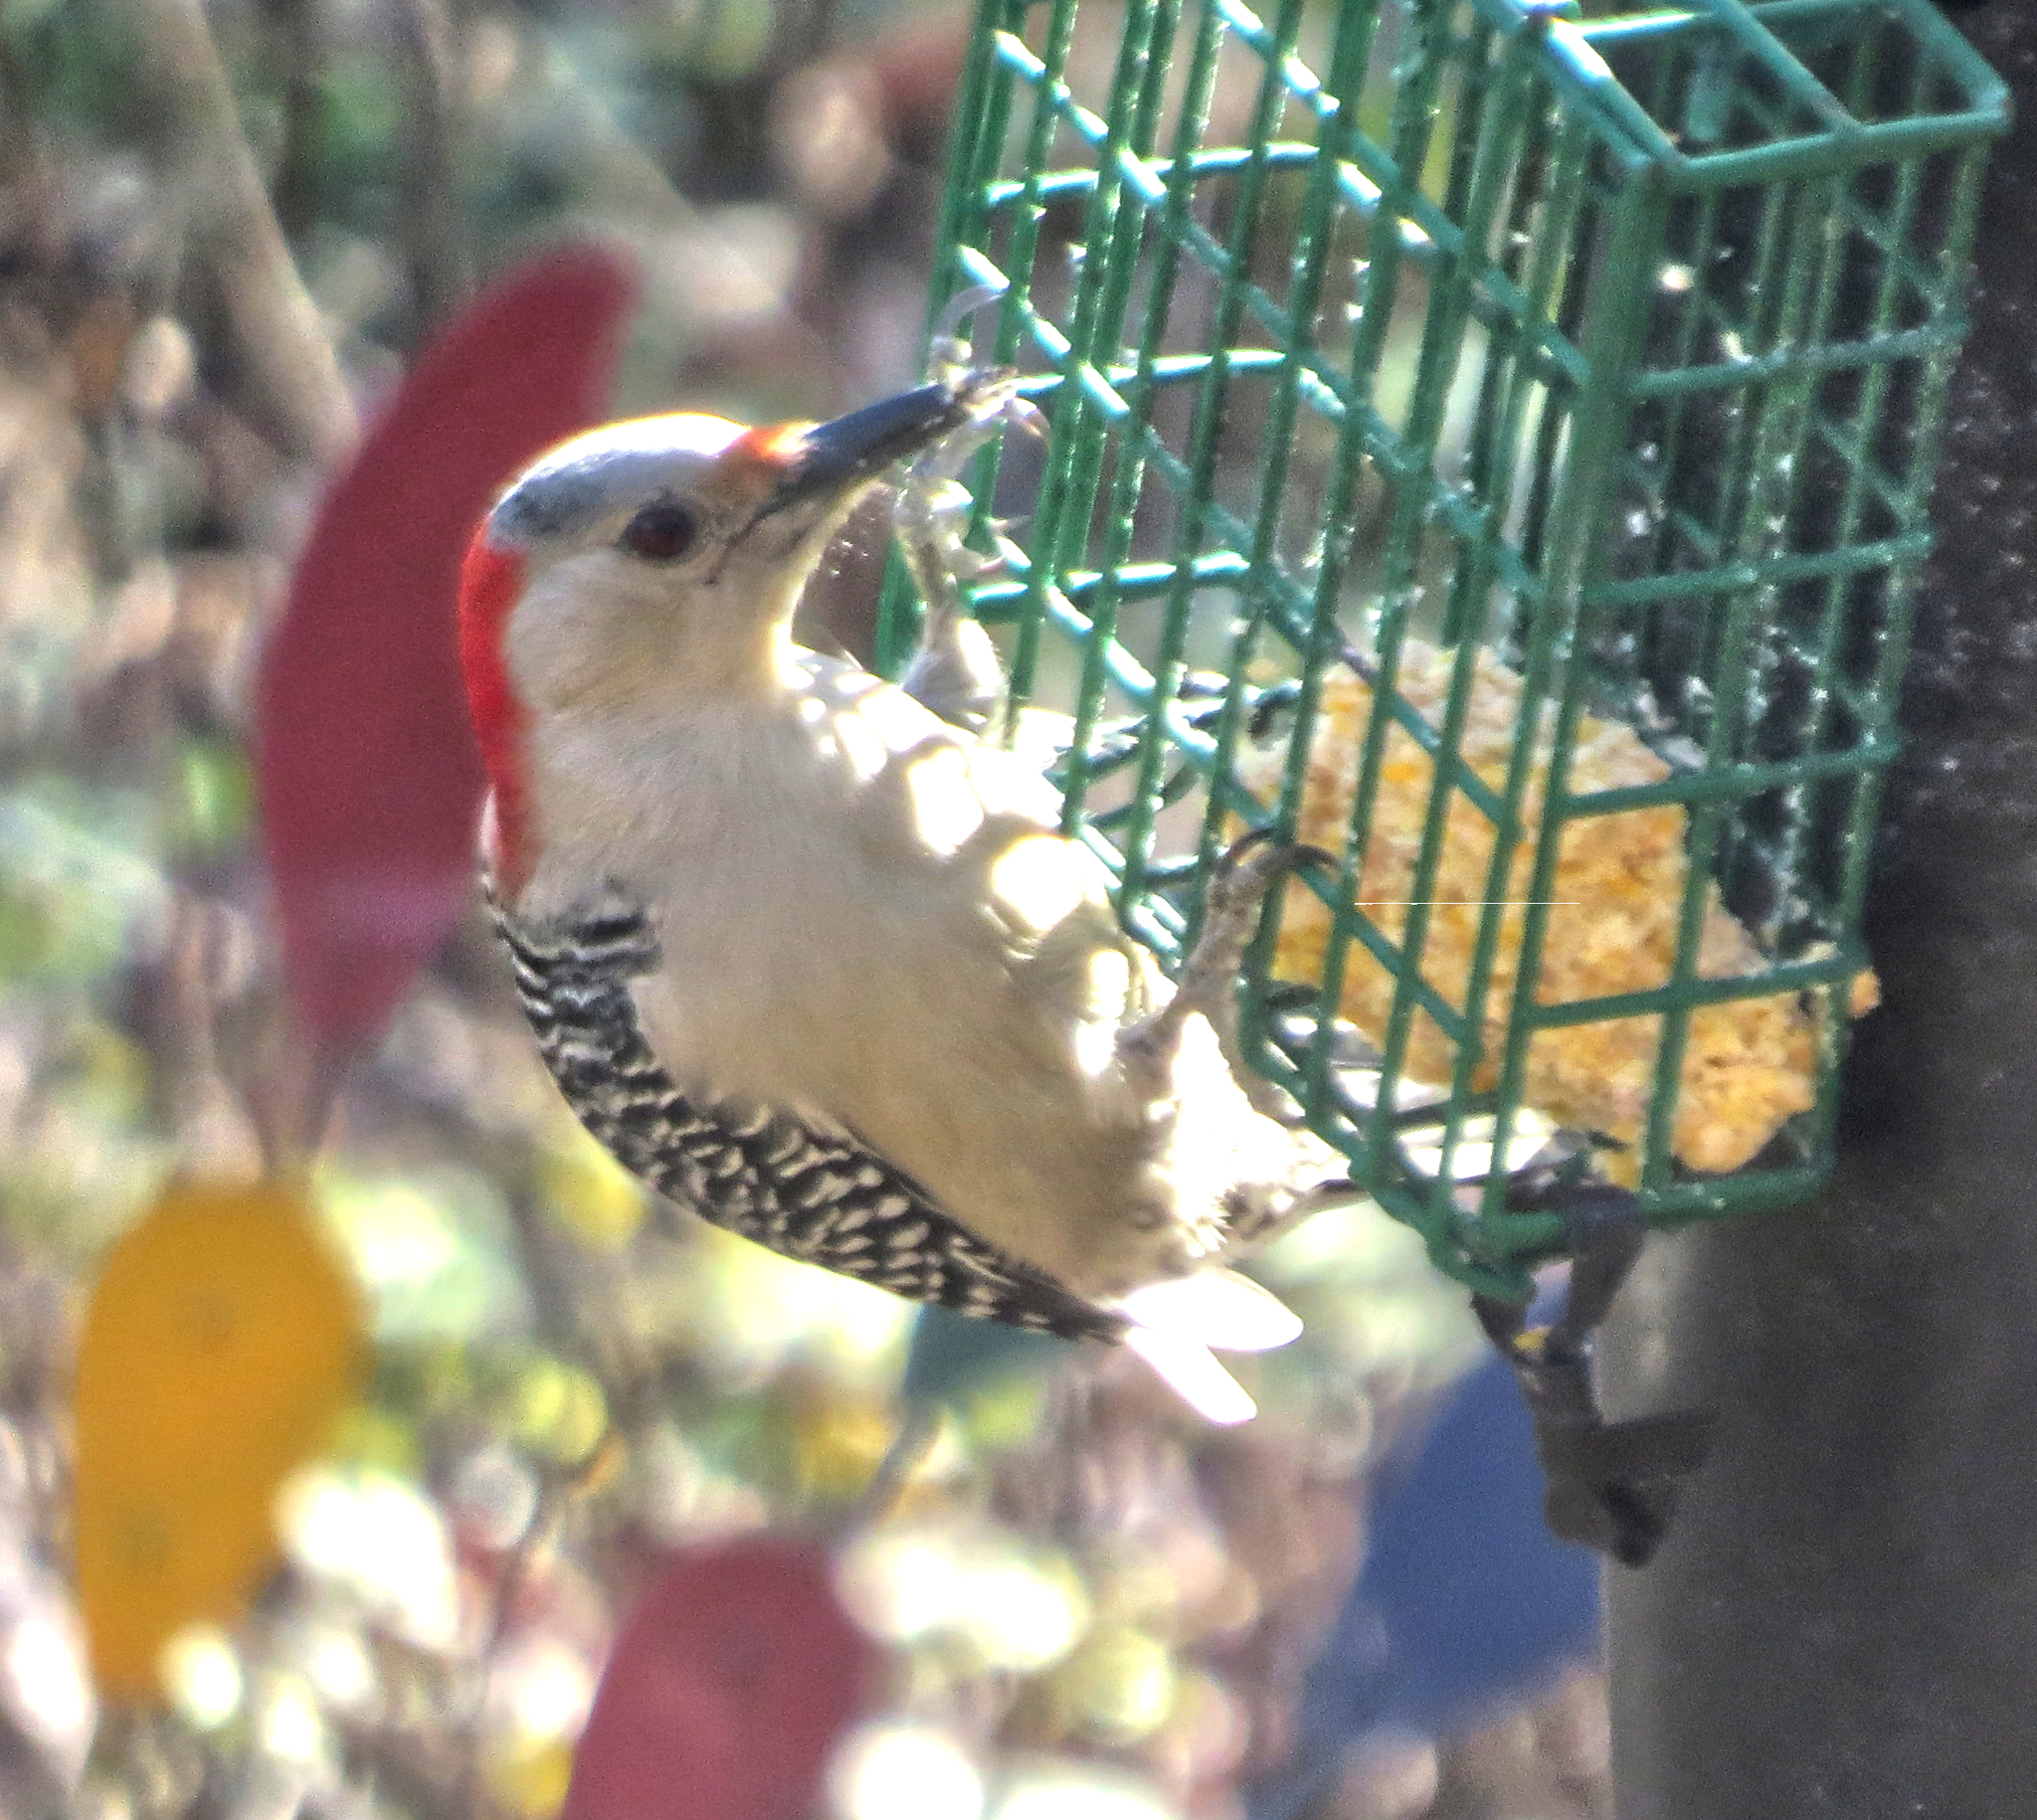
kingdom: Animalia
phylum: Chordata
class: Aves
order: Piciformes
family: Picidae
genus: Melanerpes
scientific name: Melanerpes carolinus
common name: Red-bellied woodpecker
